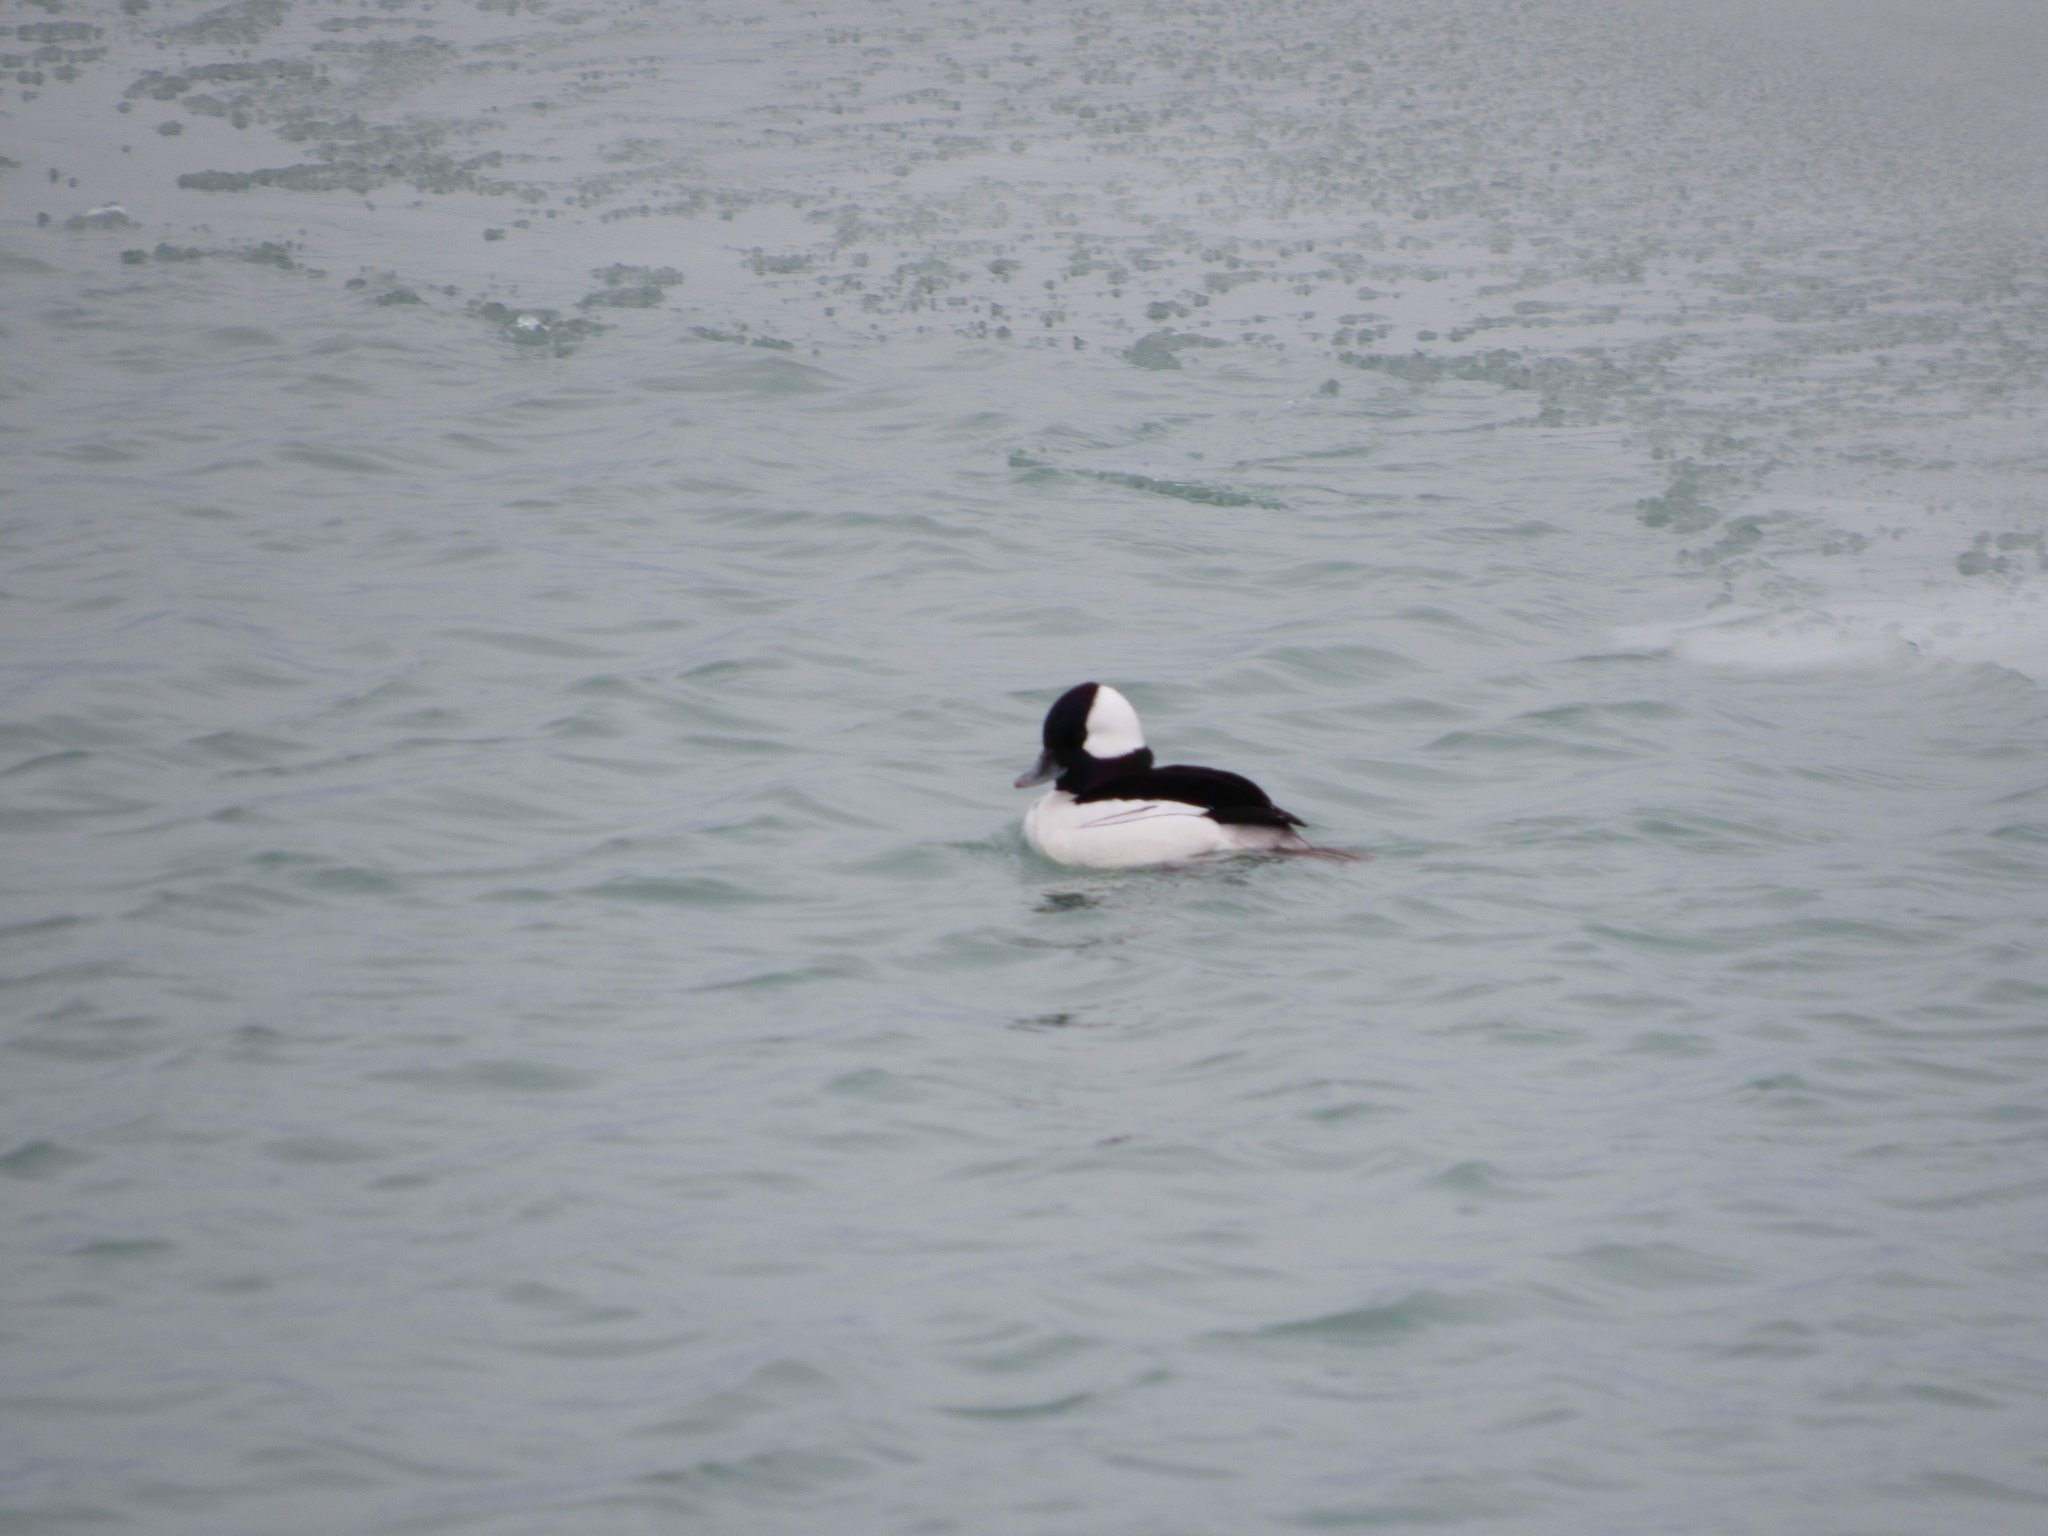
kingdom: Animalia
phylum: Chordata
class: Aves
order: Anseriformes
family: Anatidae
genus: Bucephala
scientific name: Bucephala albeola
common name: Bufflehead
